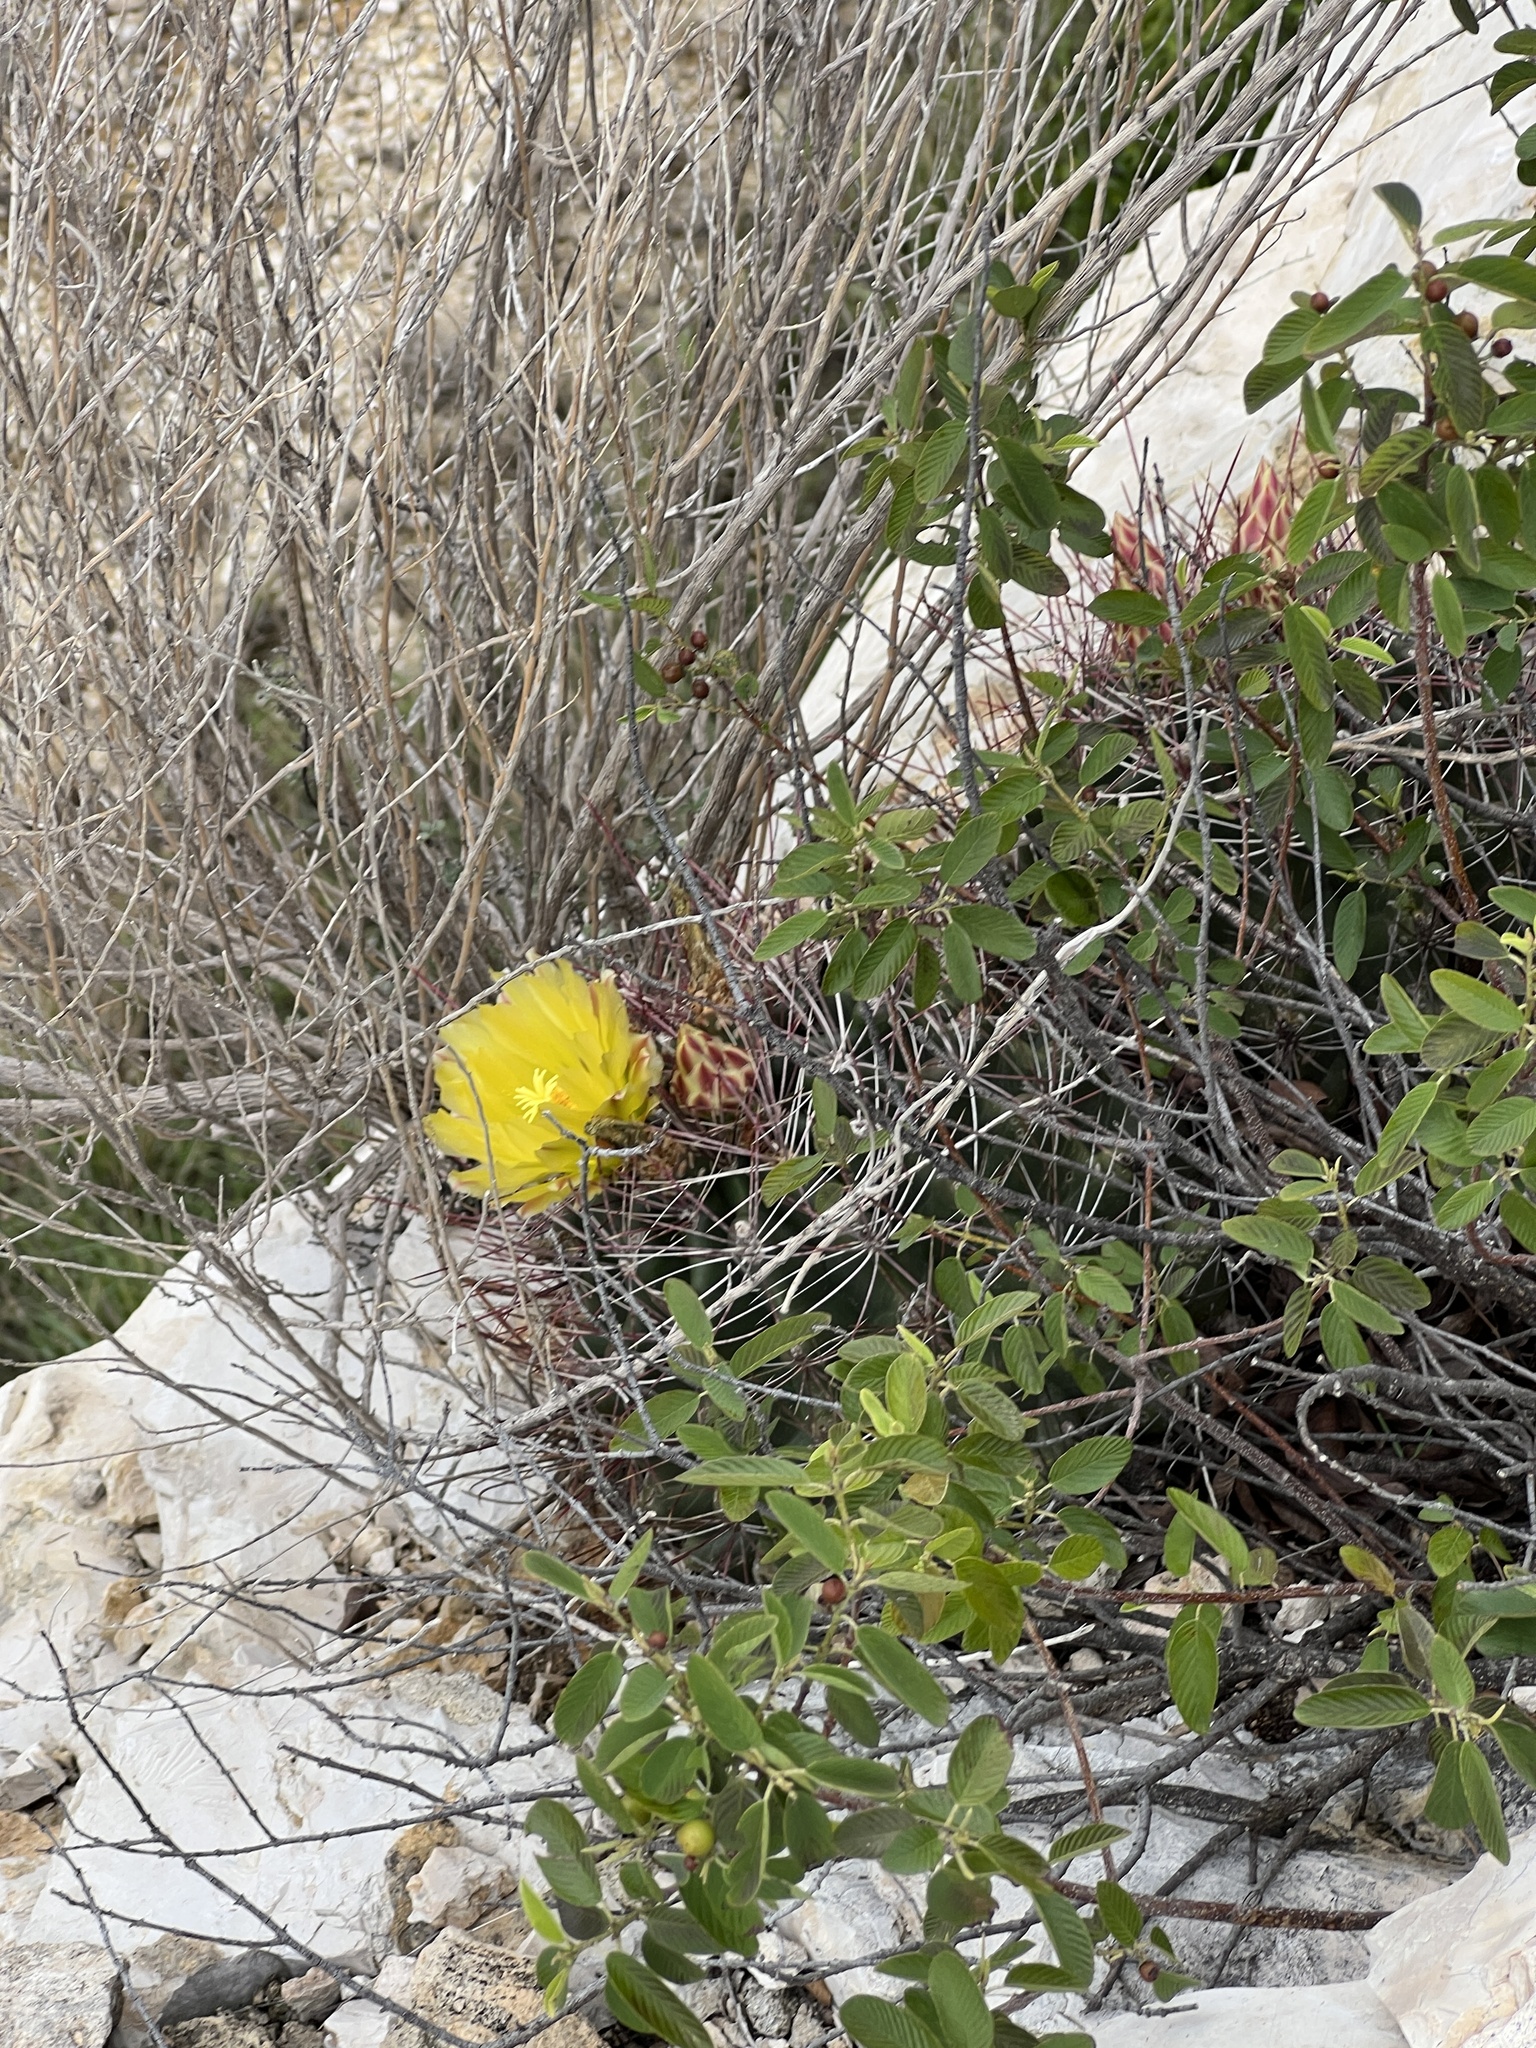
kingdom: Plantae
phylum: Tracheophyta
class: Magnoliopsida
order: Caryophyllales
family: Cactaceae
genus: Bisnaga
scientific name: Bisnaga hamatacantha
